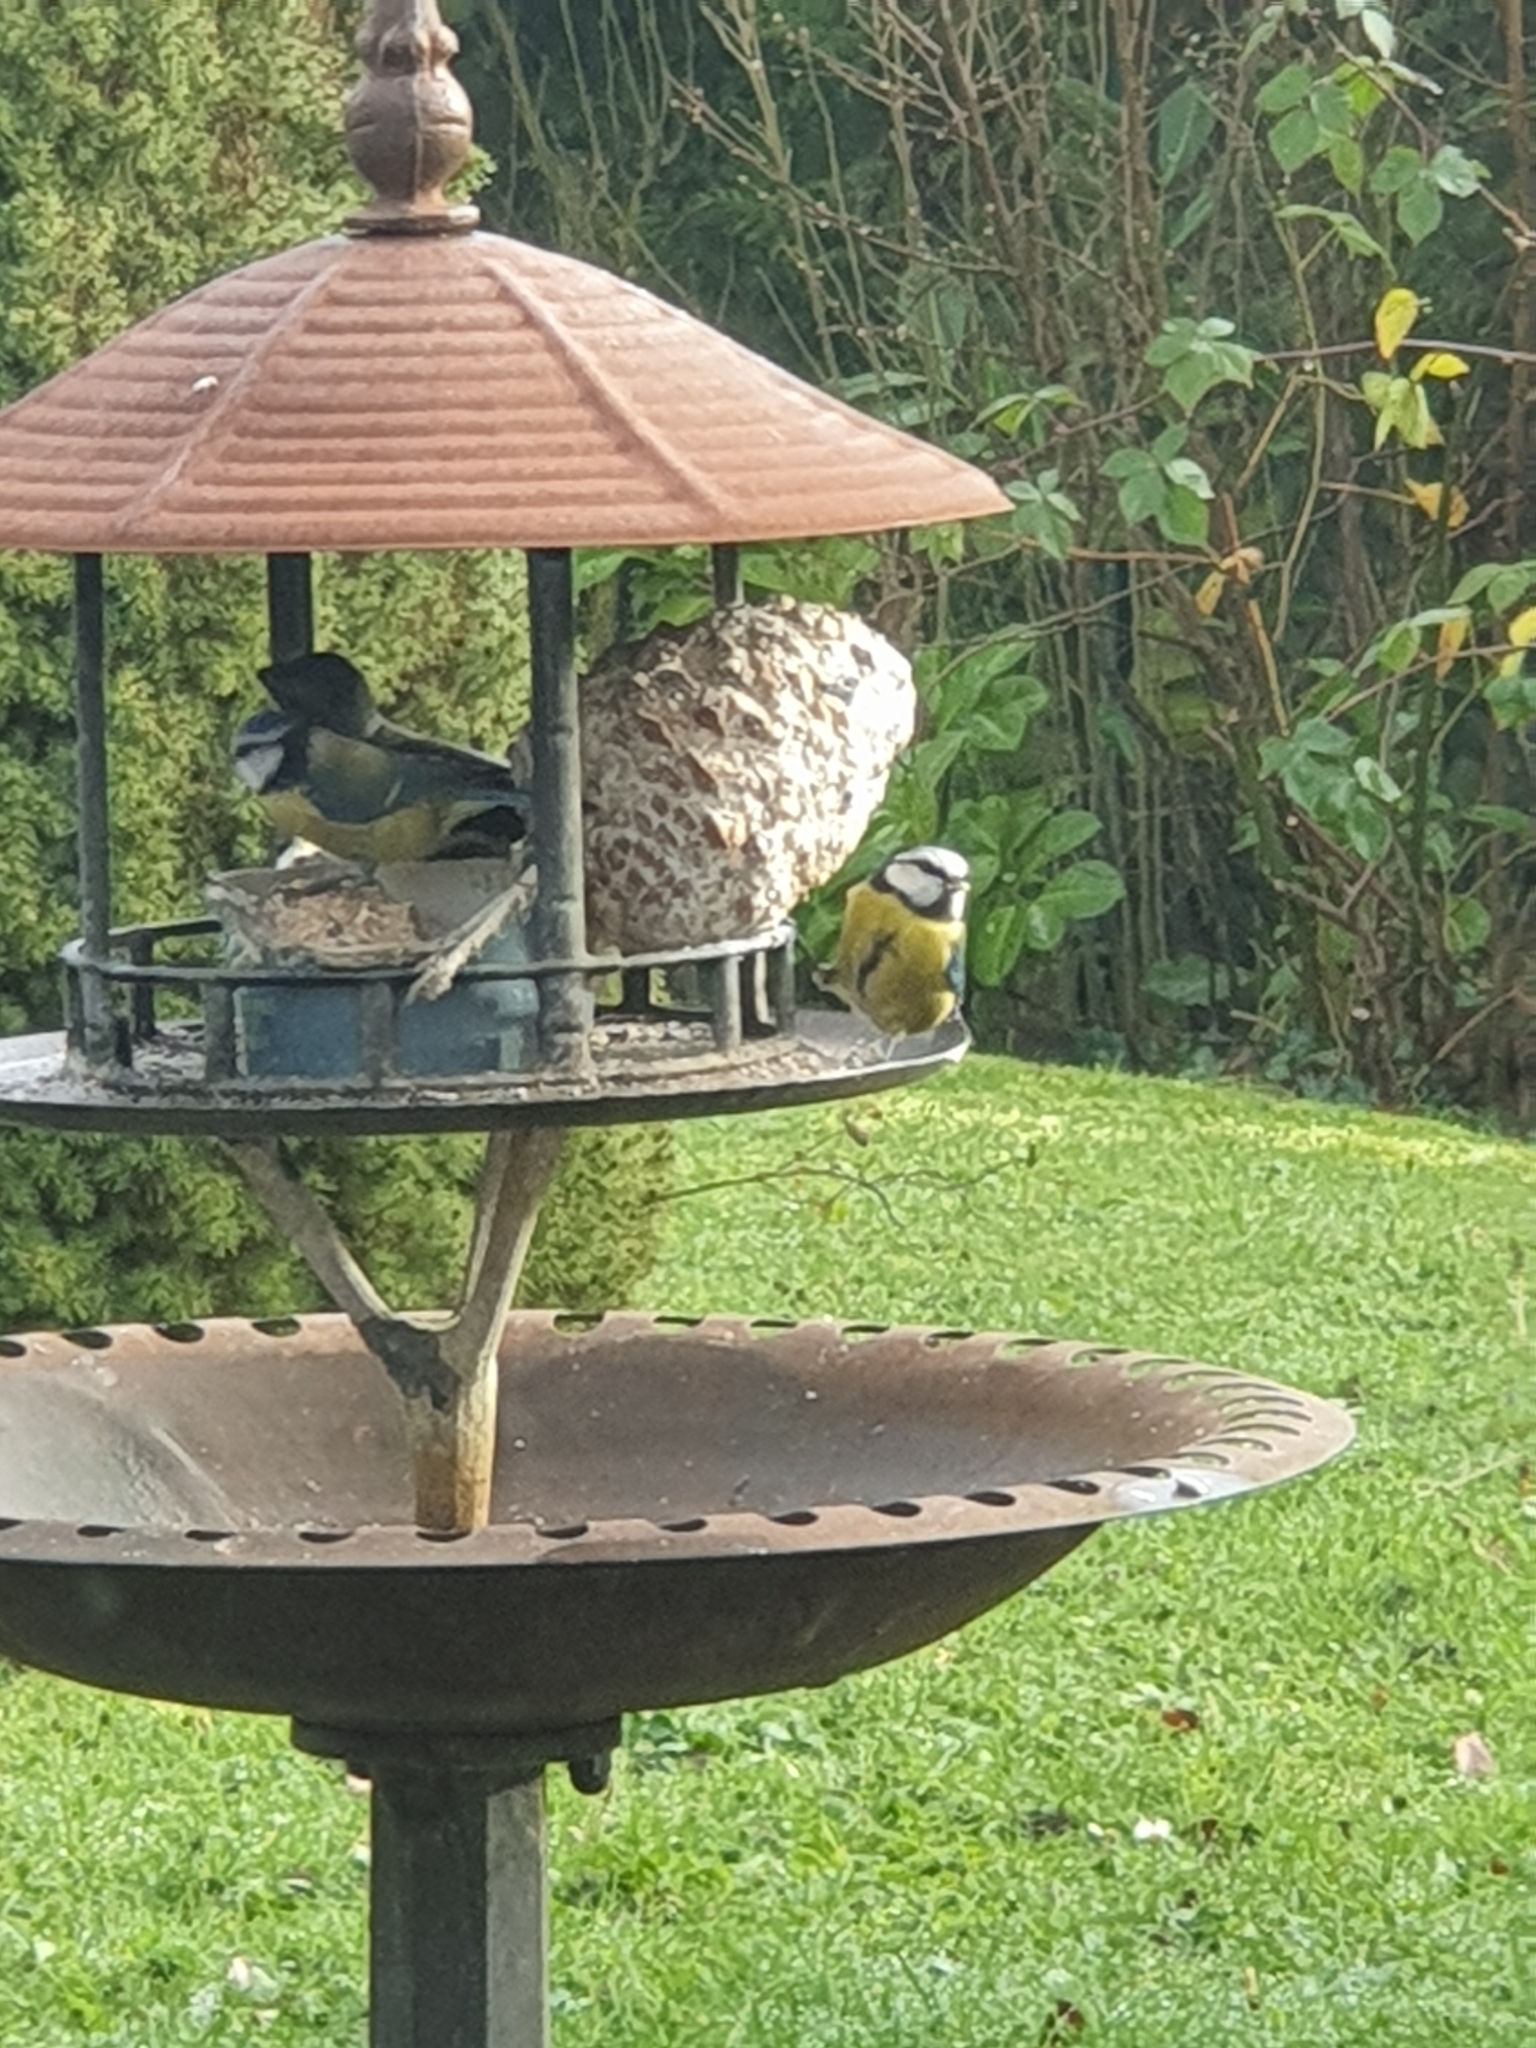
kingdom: Animalia
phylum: Chordata
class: Aves
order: Passeriformes
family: Paridae
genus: Cyanistes
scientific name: Cyanistes caeruleus
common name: Eurasian blue tit
